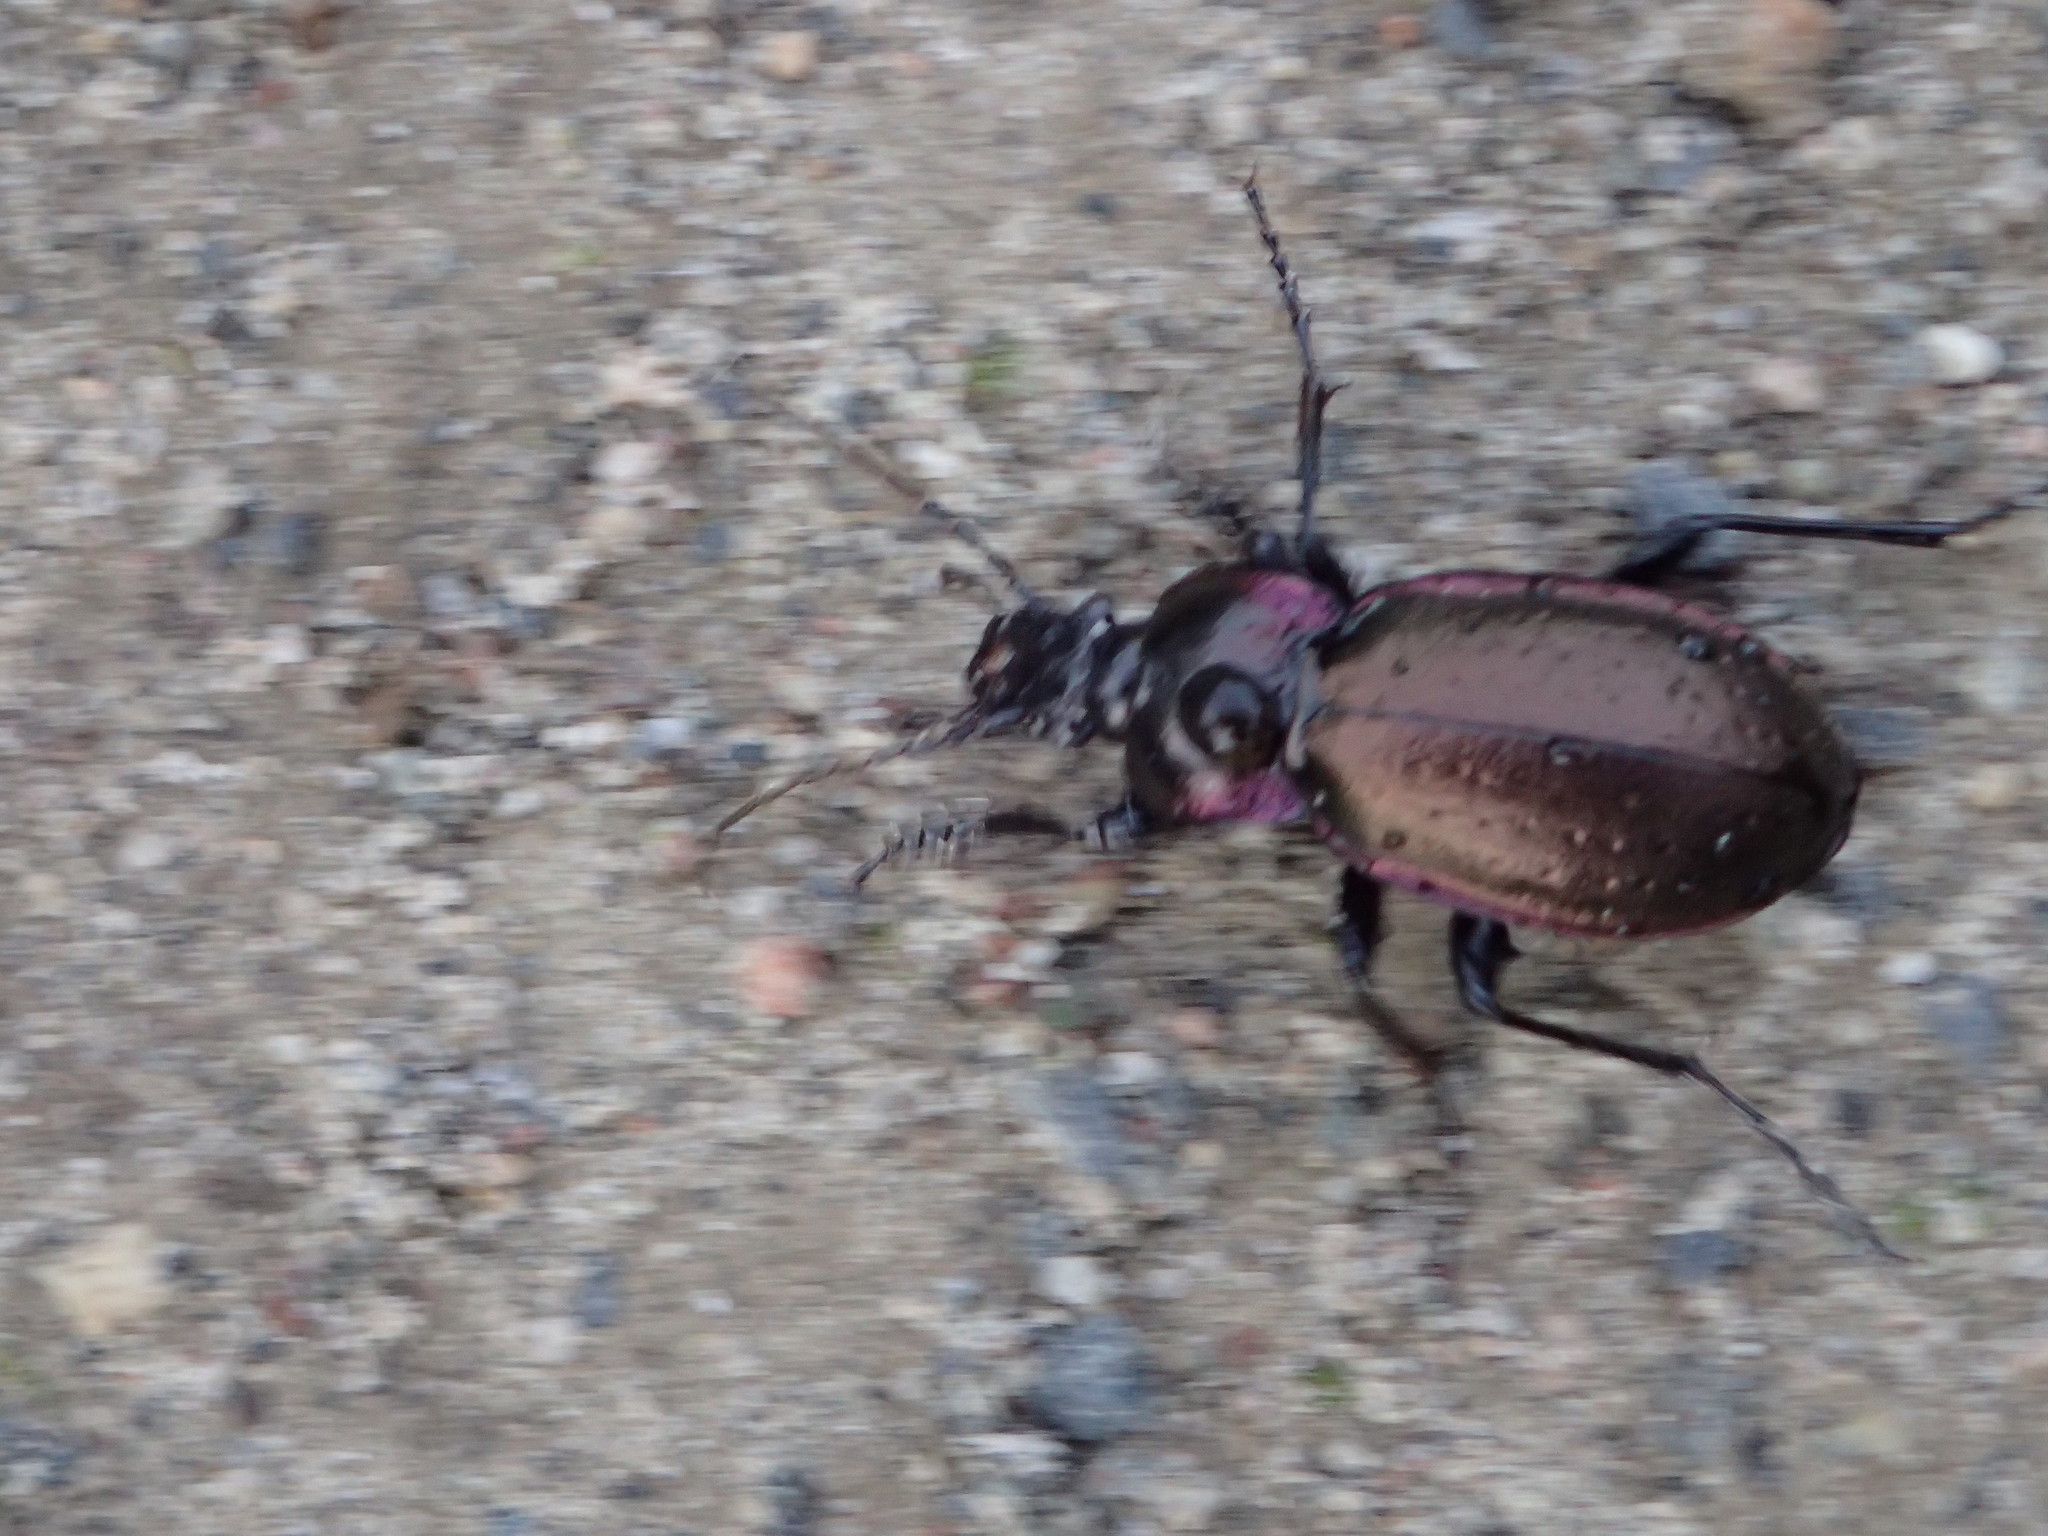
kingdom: Animalia
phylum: Arthropoda
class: Insecta
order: Coleoptera
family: Carabidae
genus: Carabus
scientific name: Carabus nemoralis
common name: European ground beetle
